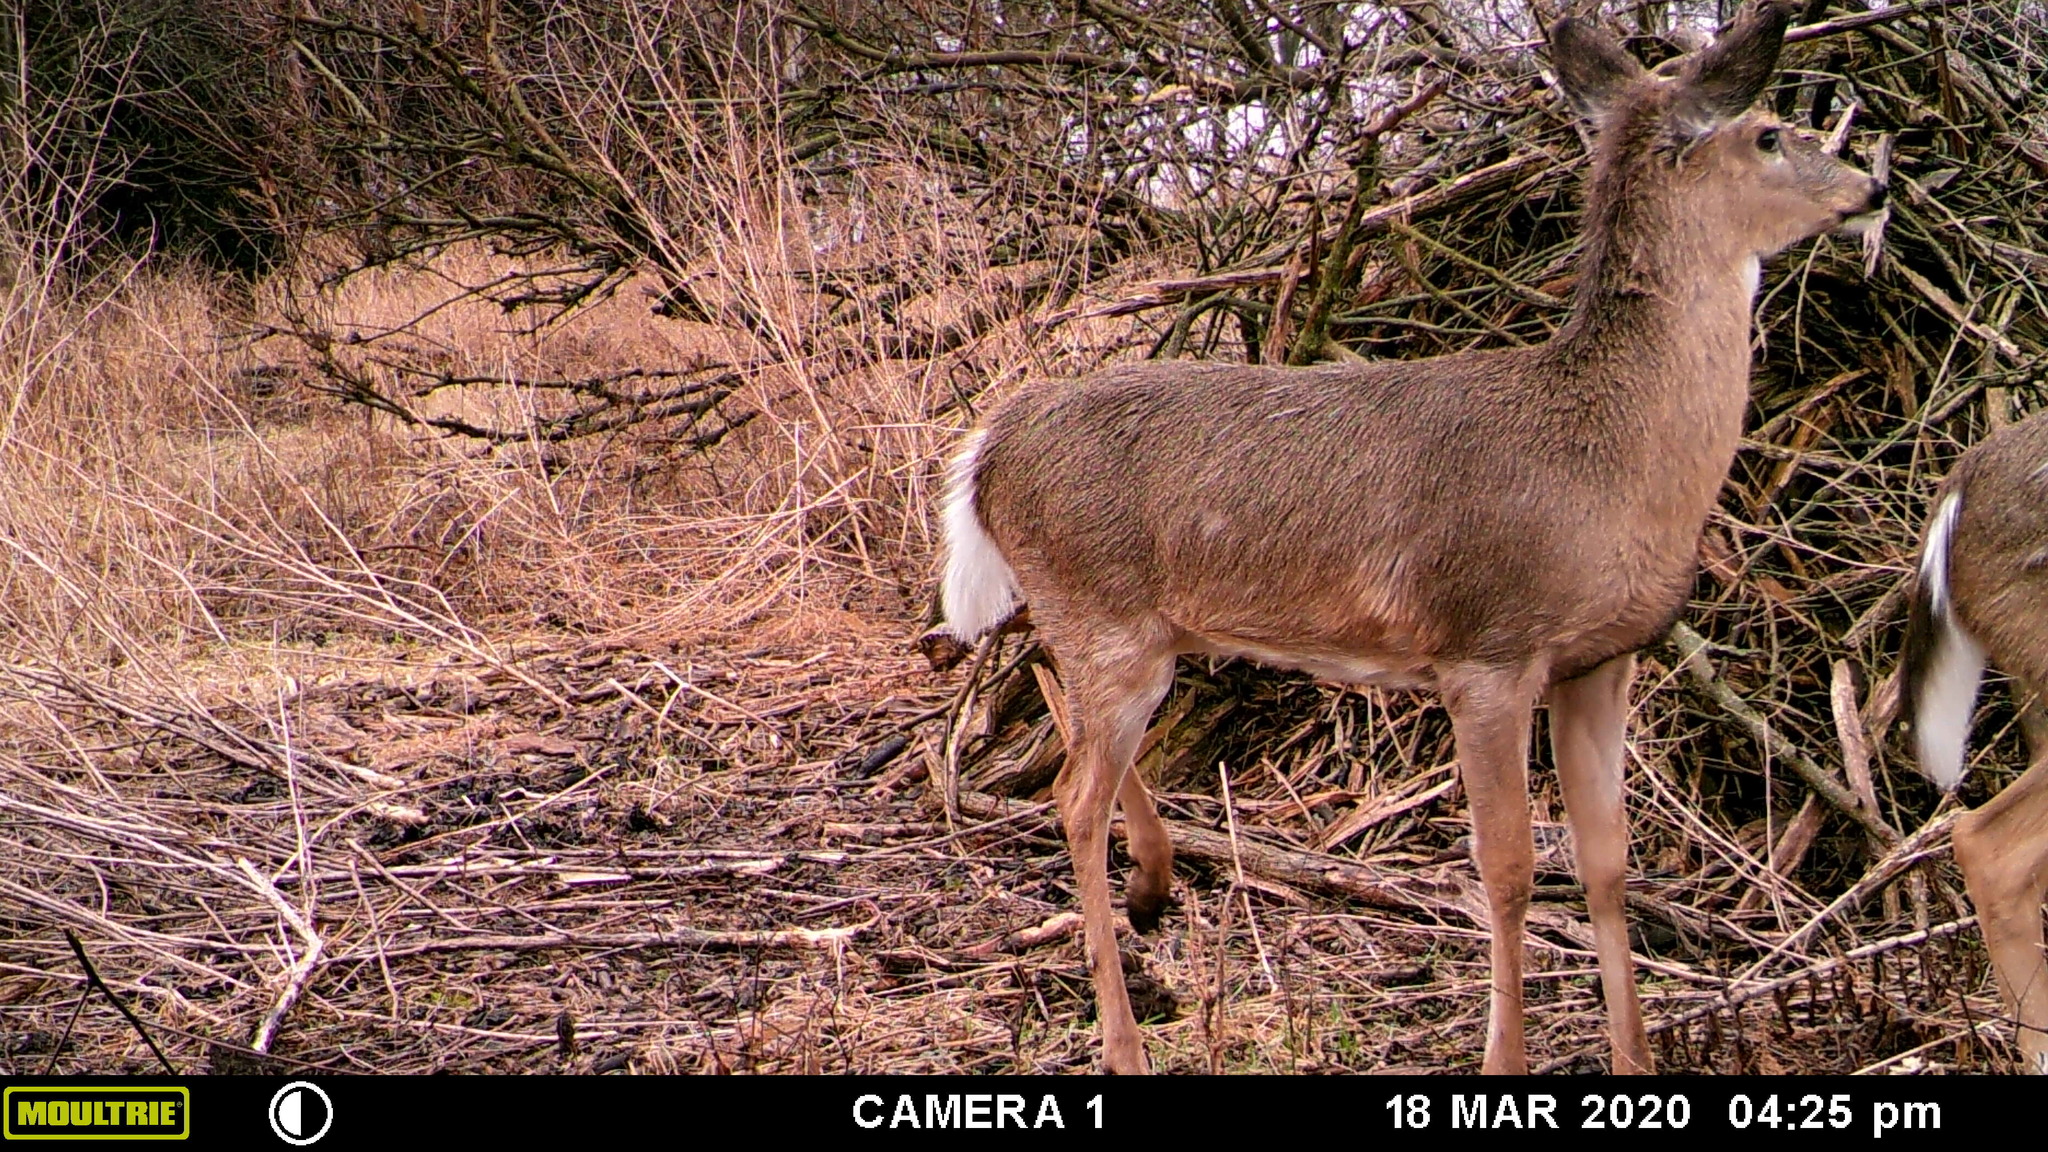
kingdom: Animalia
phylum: Chordata
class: Mammalia
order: Artiodactyla
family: Cervidae
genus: Odocoileus
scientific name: Odocoileus virginianus
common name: White-tailed deer
